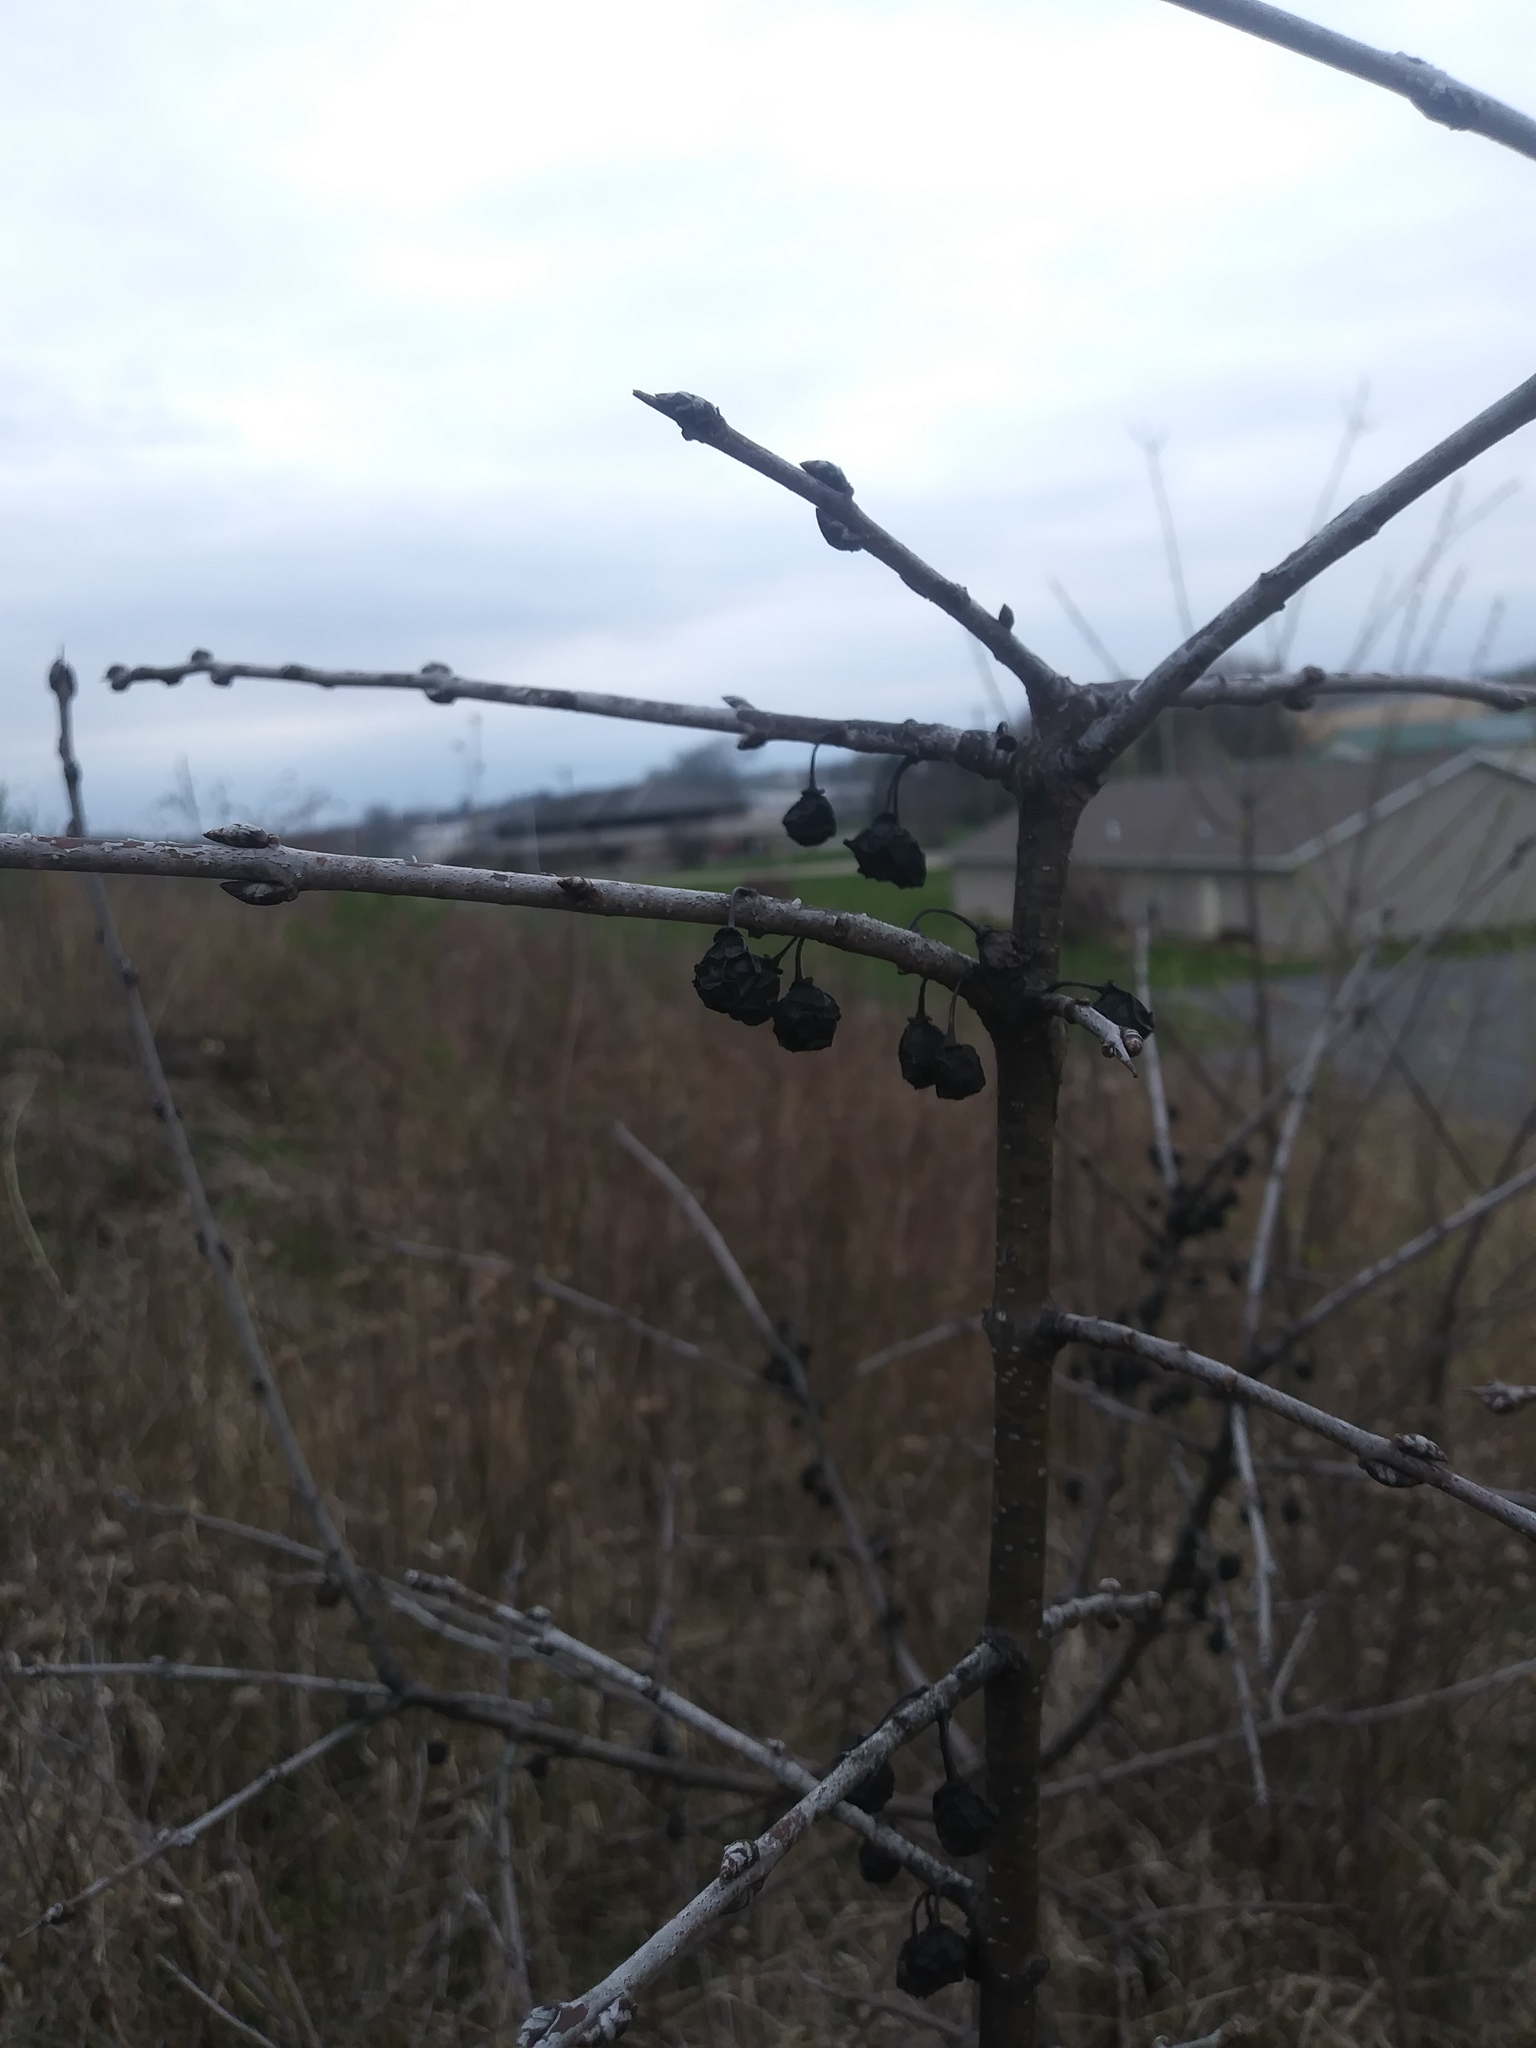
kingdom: Plantae
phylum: Tracheophyta
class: Magnoliopsida
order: Rosales
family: Rhamnaceae
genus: Rhamnus
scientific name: Rhamnus cathartica
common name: Common buckthorn
